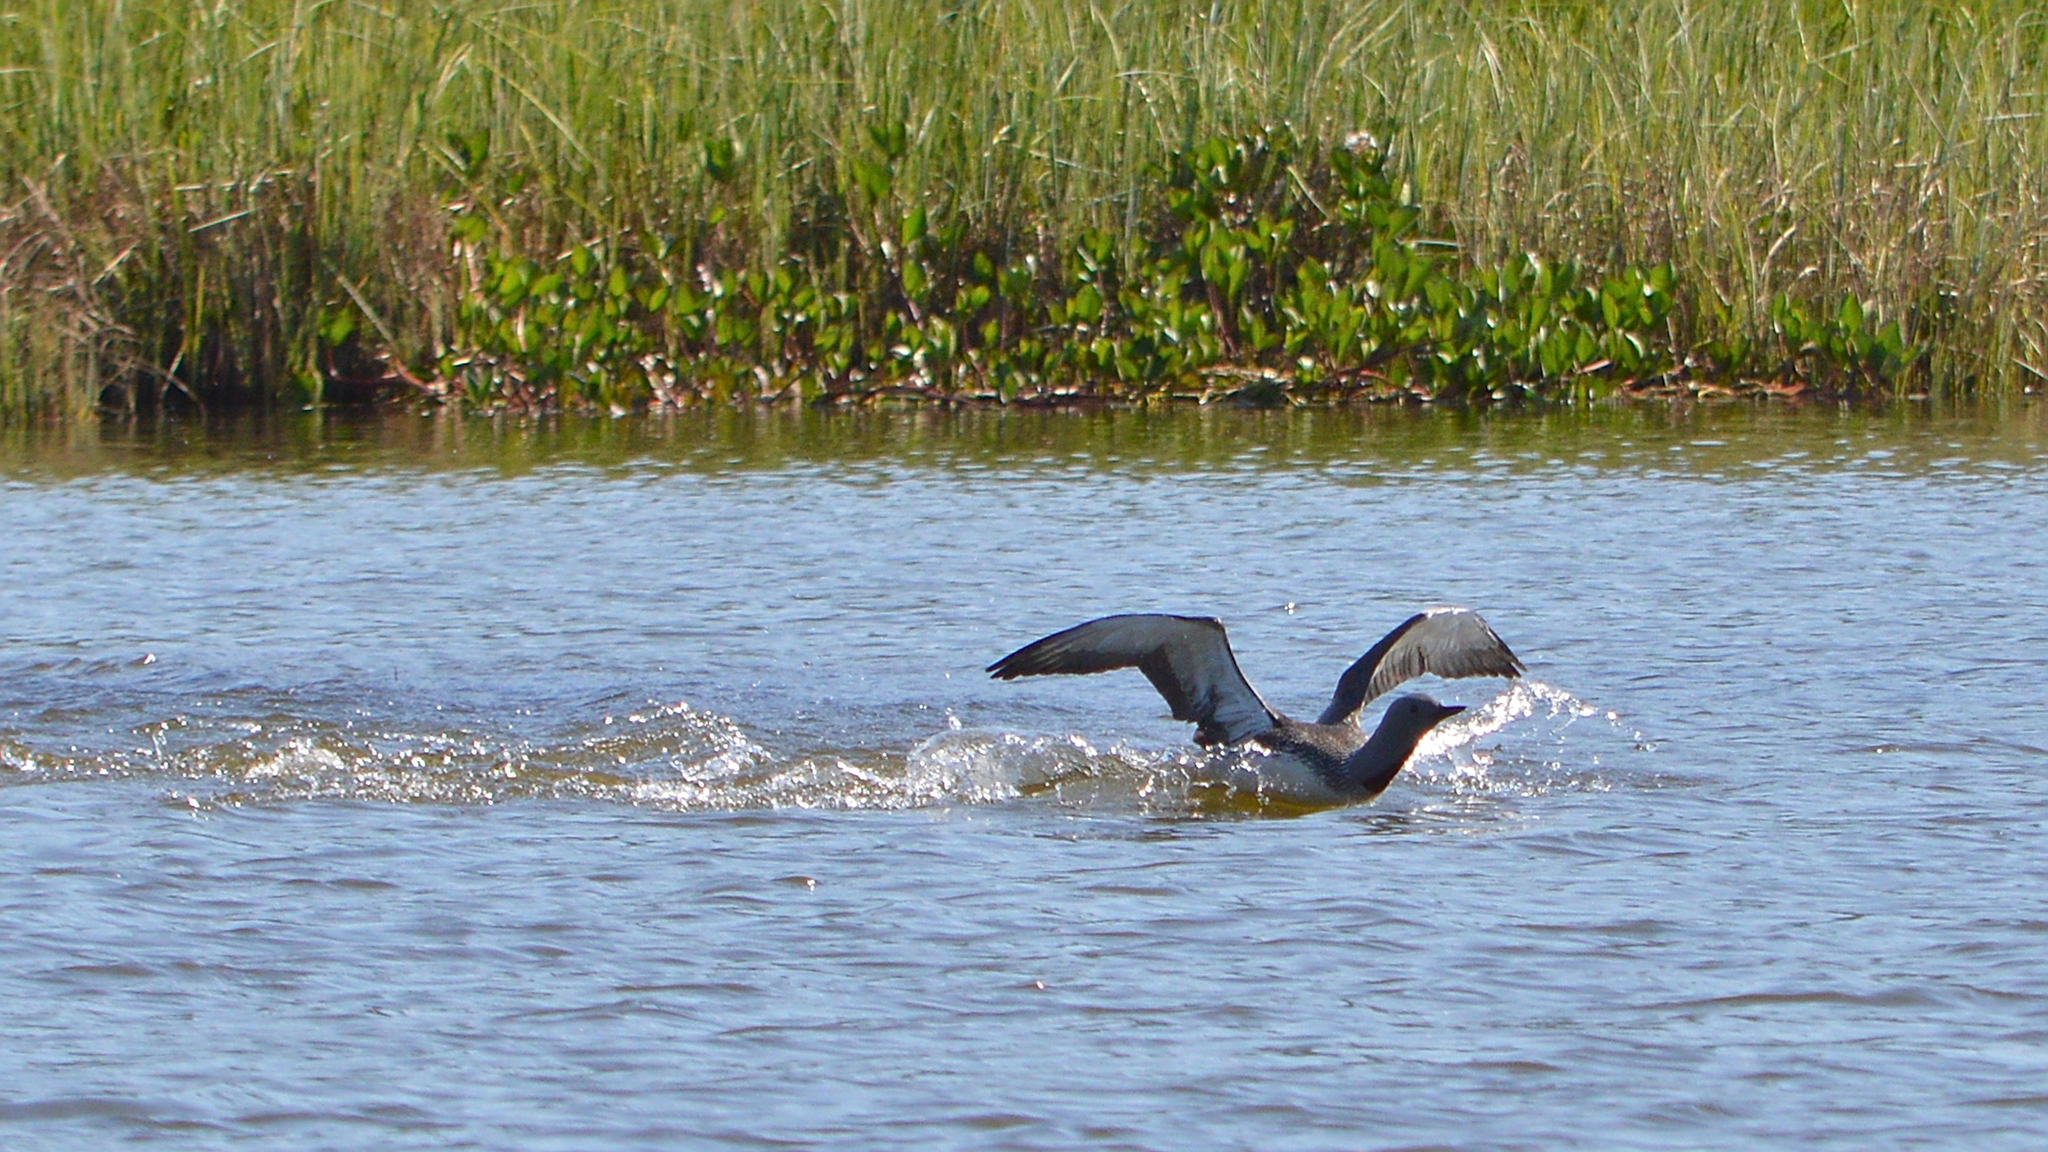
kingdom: Animalia
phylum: Chordata
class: Aves
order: Gaviiformes
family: Gaviidae
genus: Gavia
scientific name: Gavia stellata
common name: Red-throated loon
